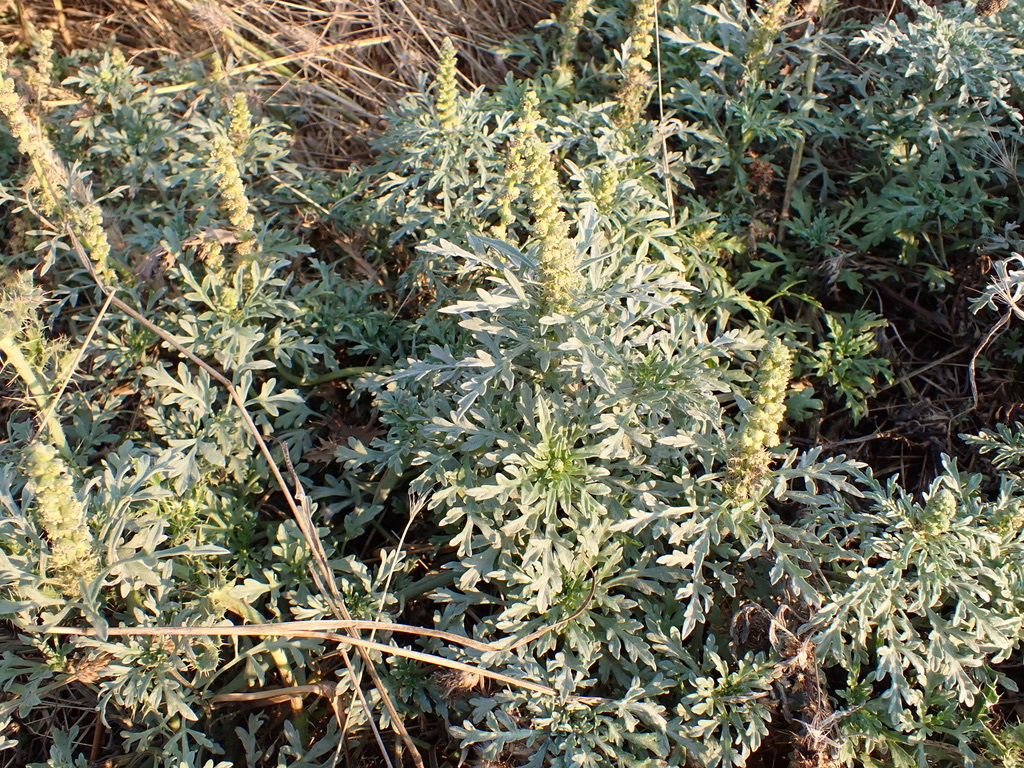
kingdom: Plantae
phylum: Tracheophyta
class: Magnoliopsida
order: Asterales
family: Asteraceae
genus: Ambrosia
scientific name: Ambrosia chamissonis
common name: Beachbur
